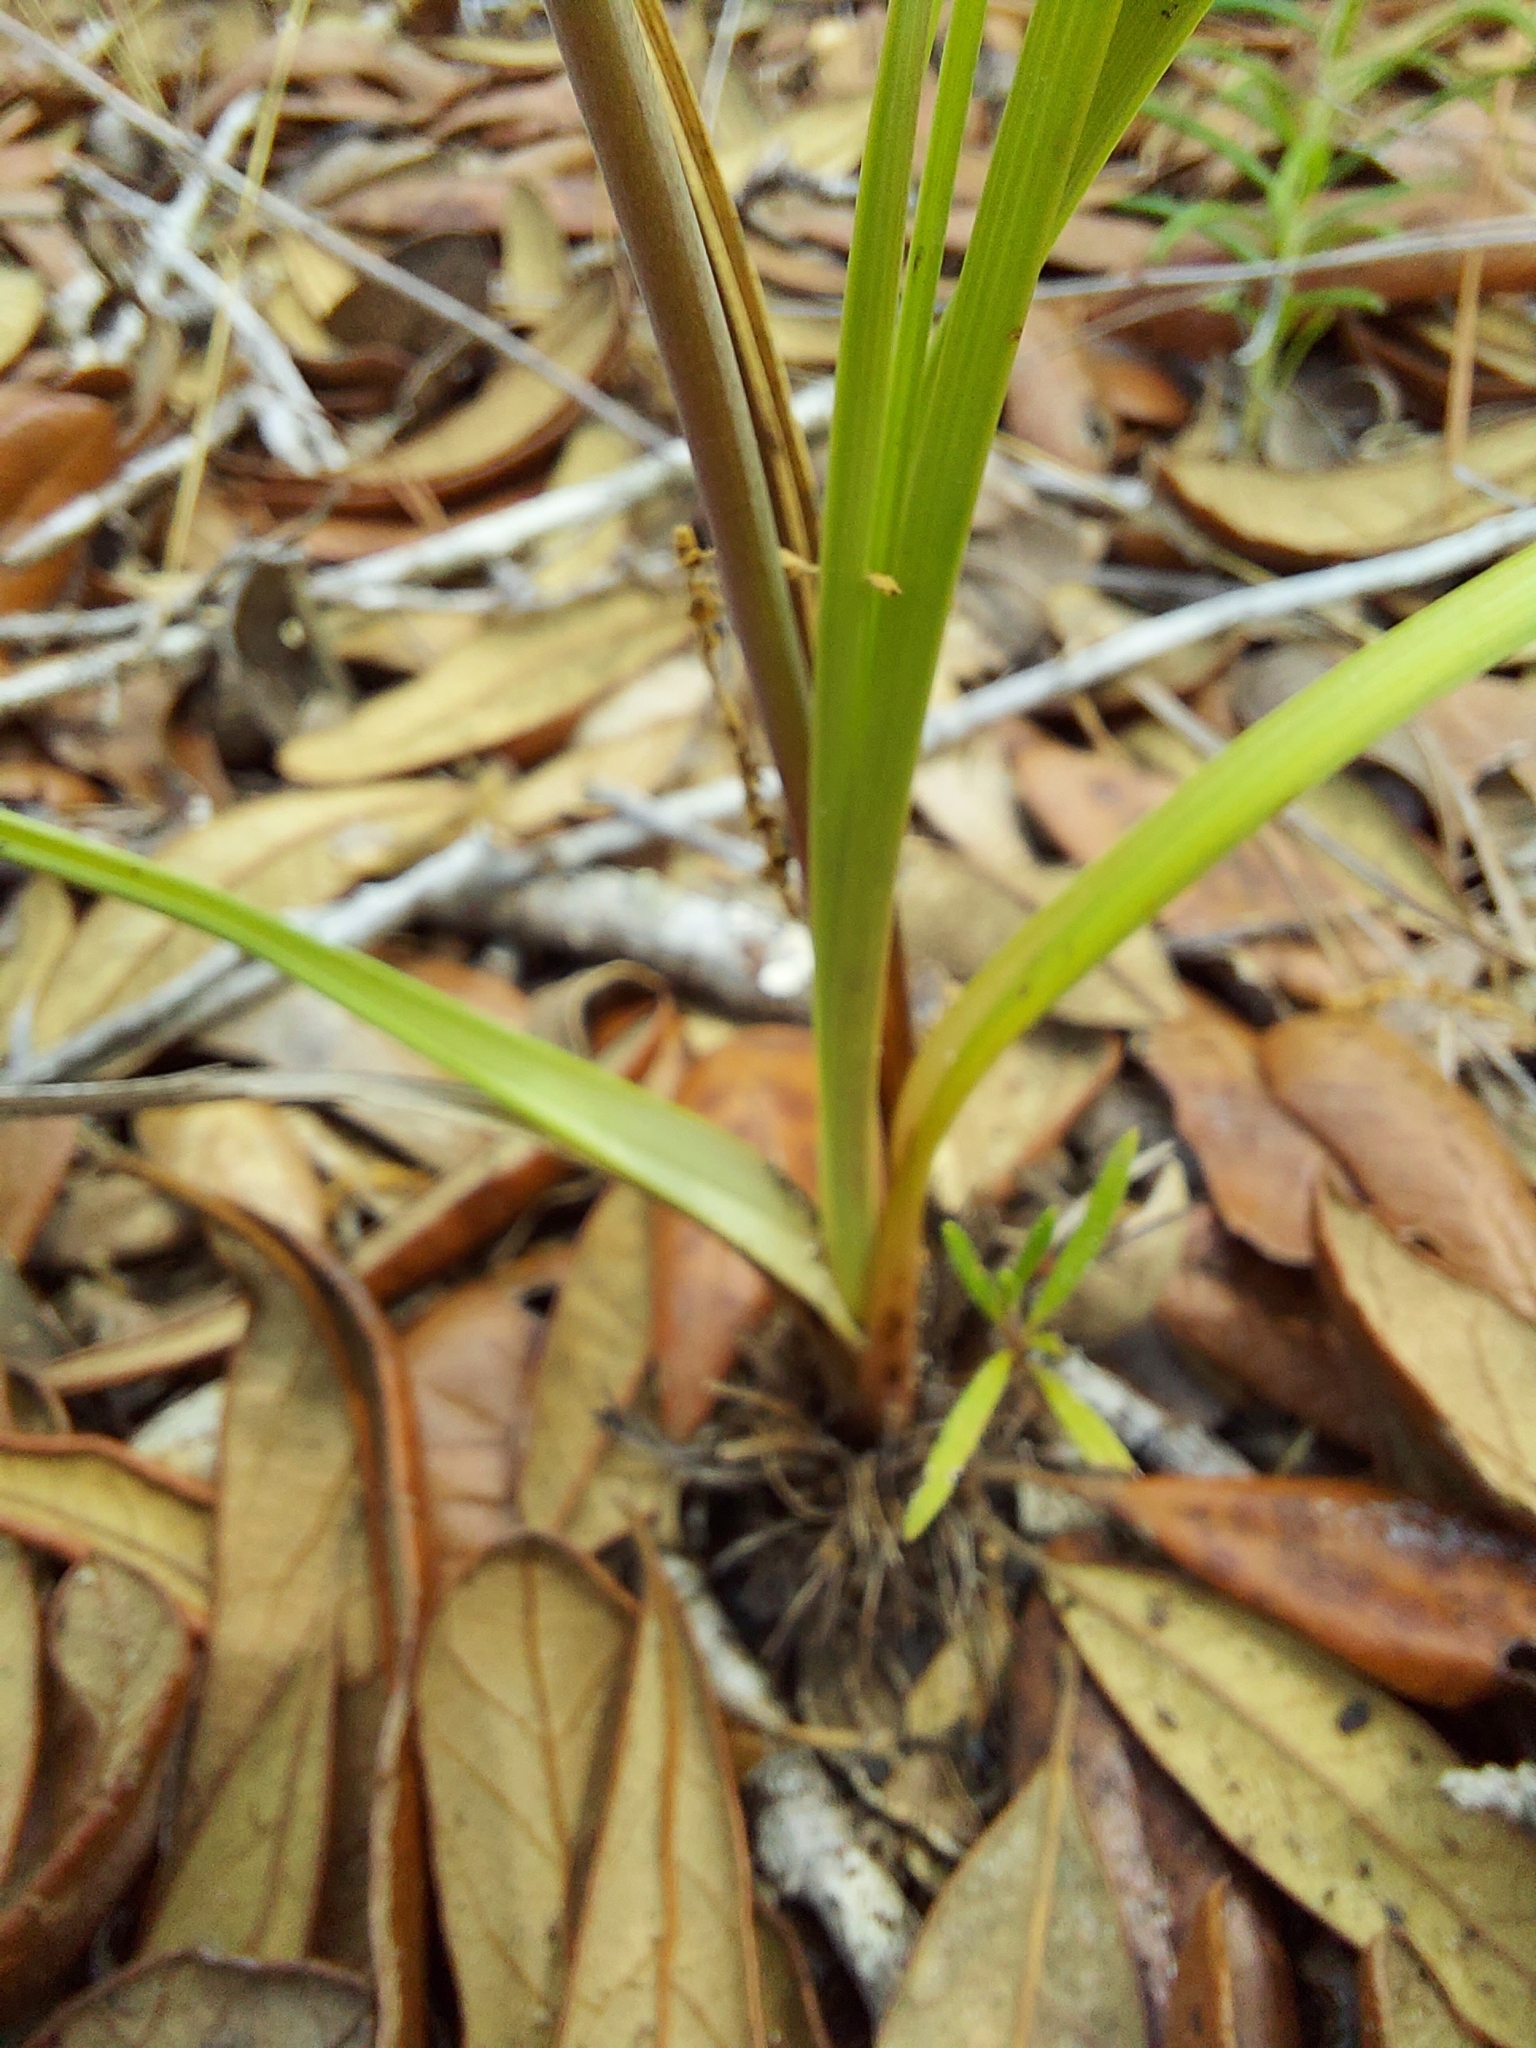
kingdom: Plantae
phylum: Tracheophyta
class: Liliopsida
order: Liliales
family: Melanthiaceae
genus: Schoenocaulon
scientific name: Schoenocaulon dubium
